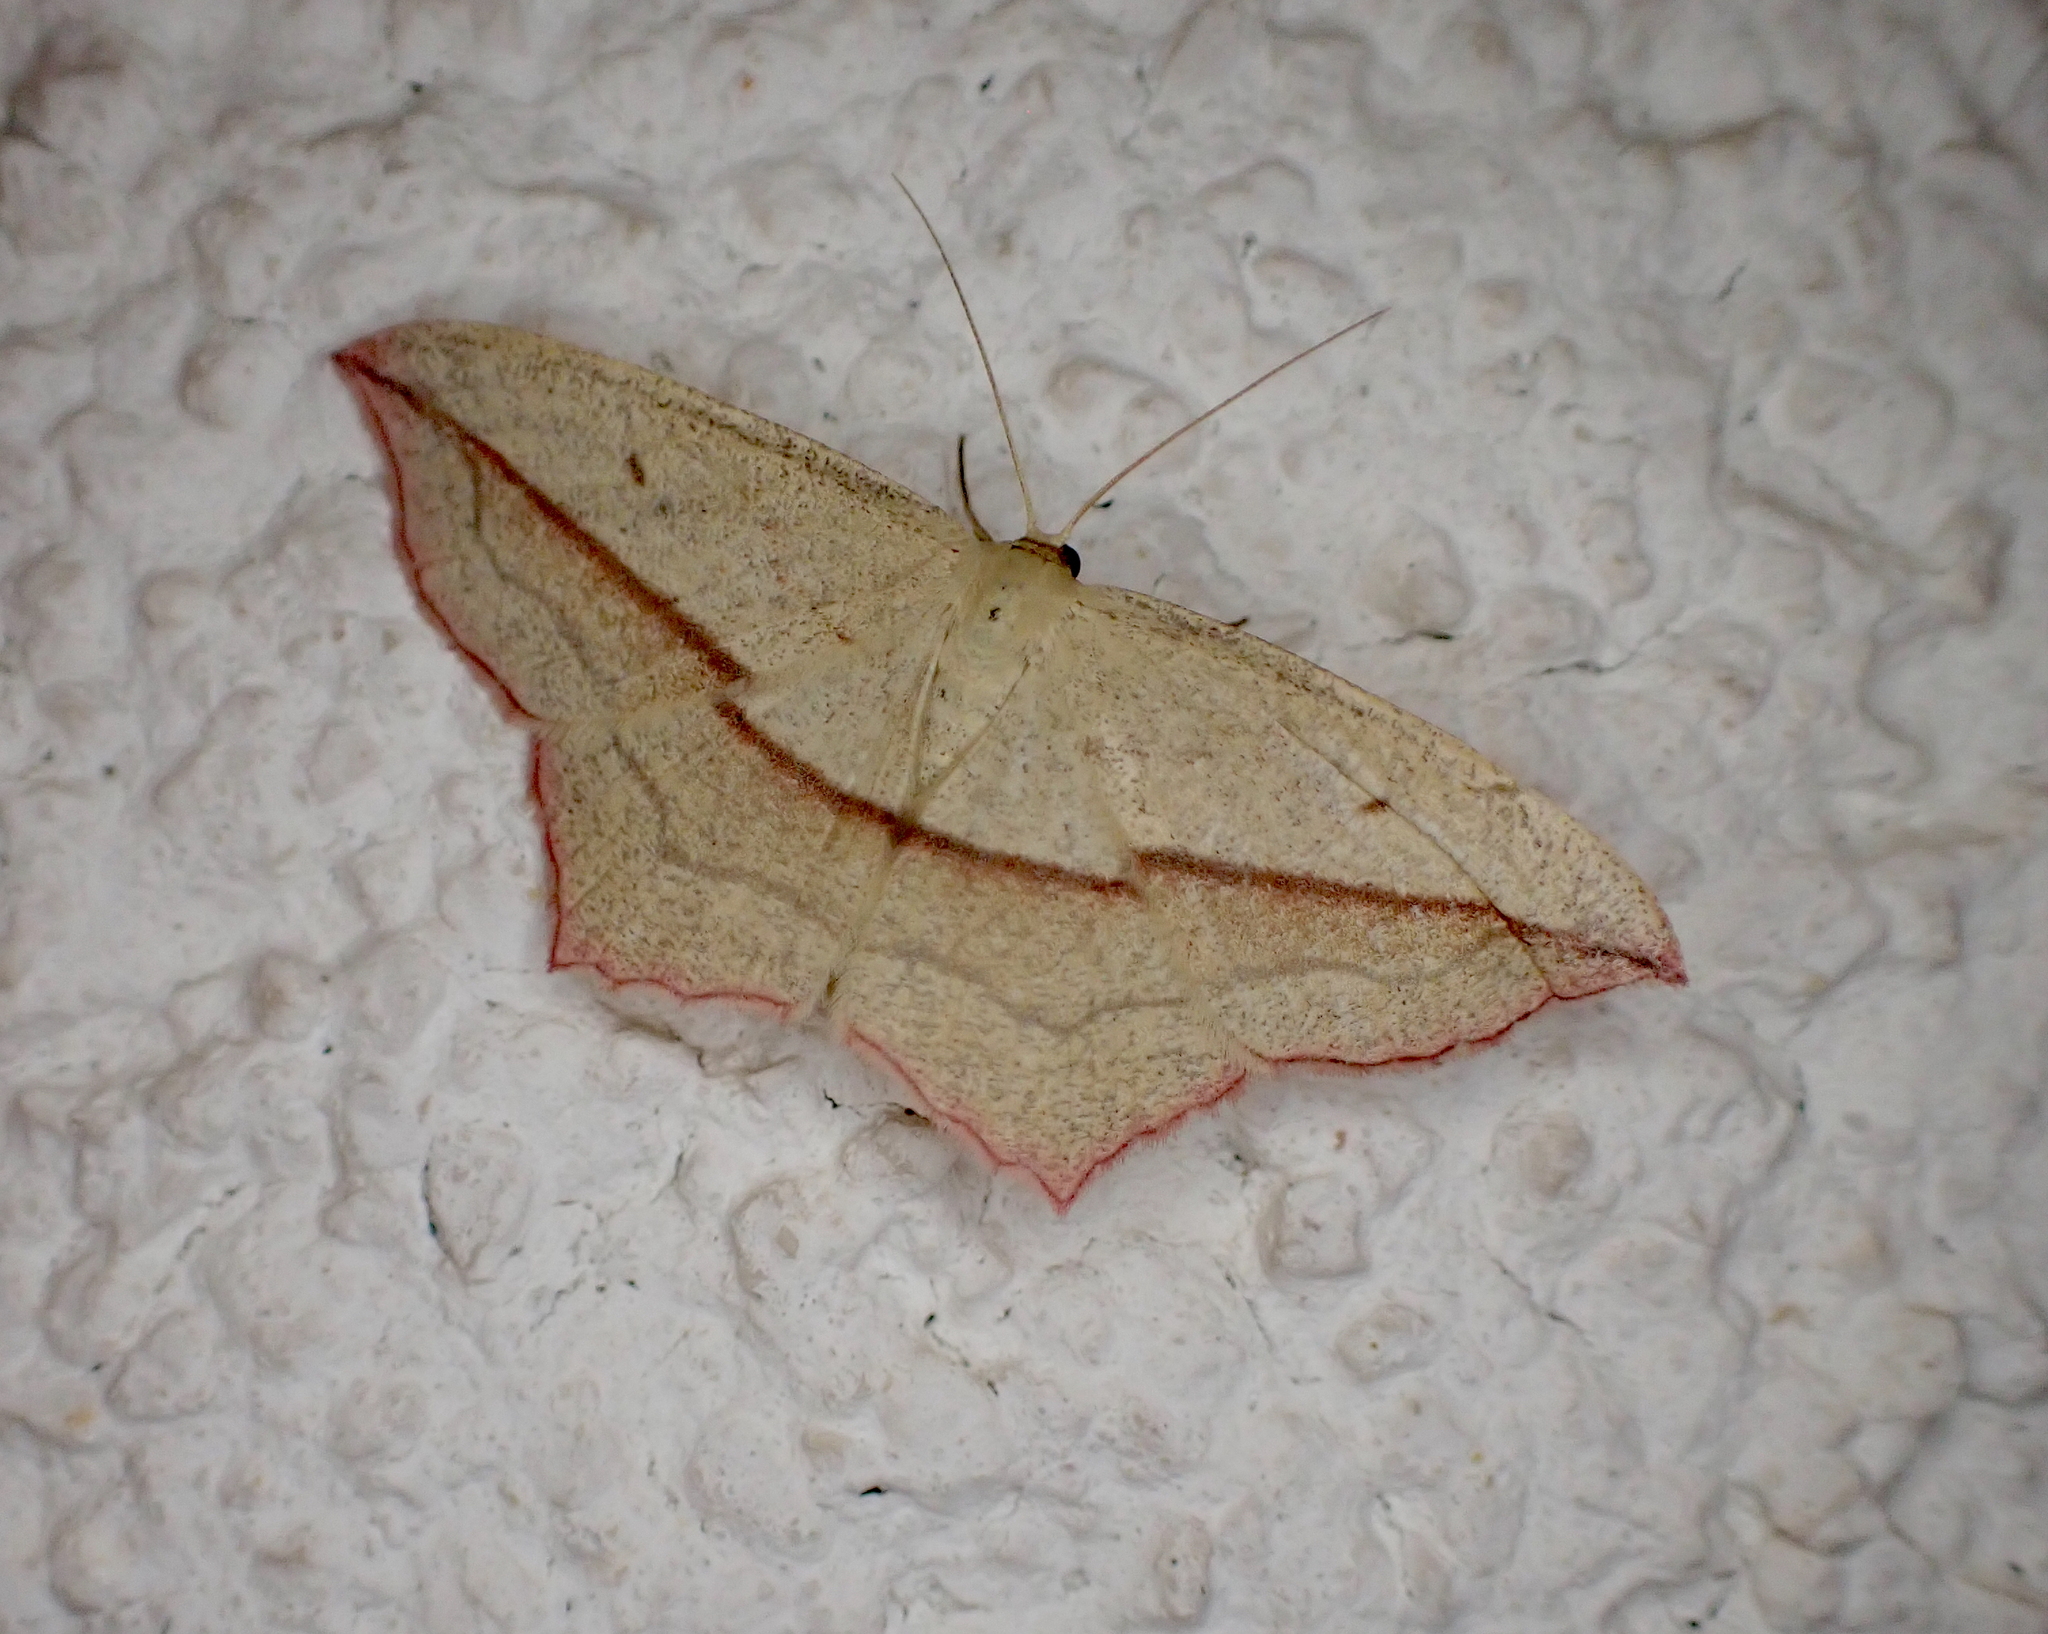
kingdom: Animalia
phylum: Arthropoda
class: Insecta
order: Lepidoptera
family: Geometridae
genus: Timandra
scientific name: Timandra comae
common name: Blood-vein
